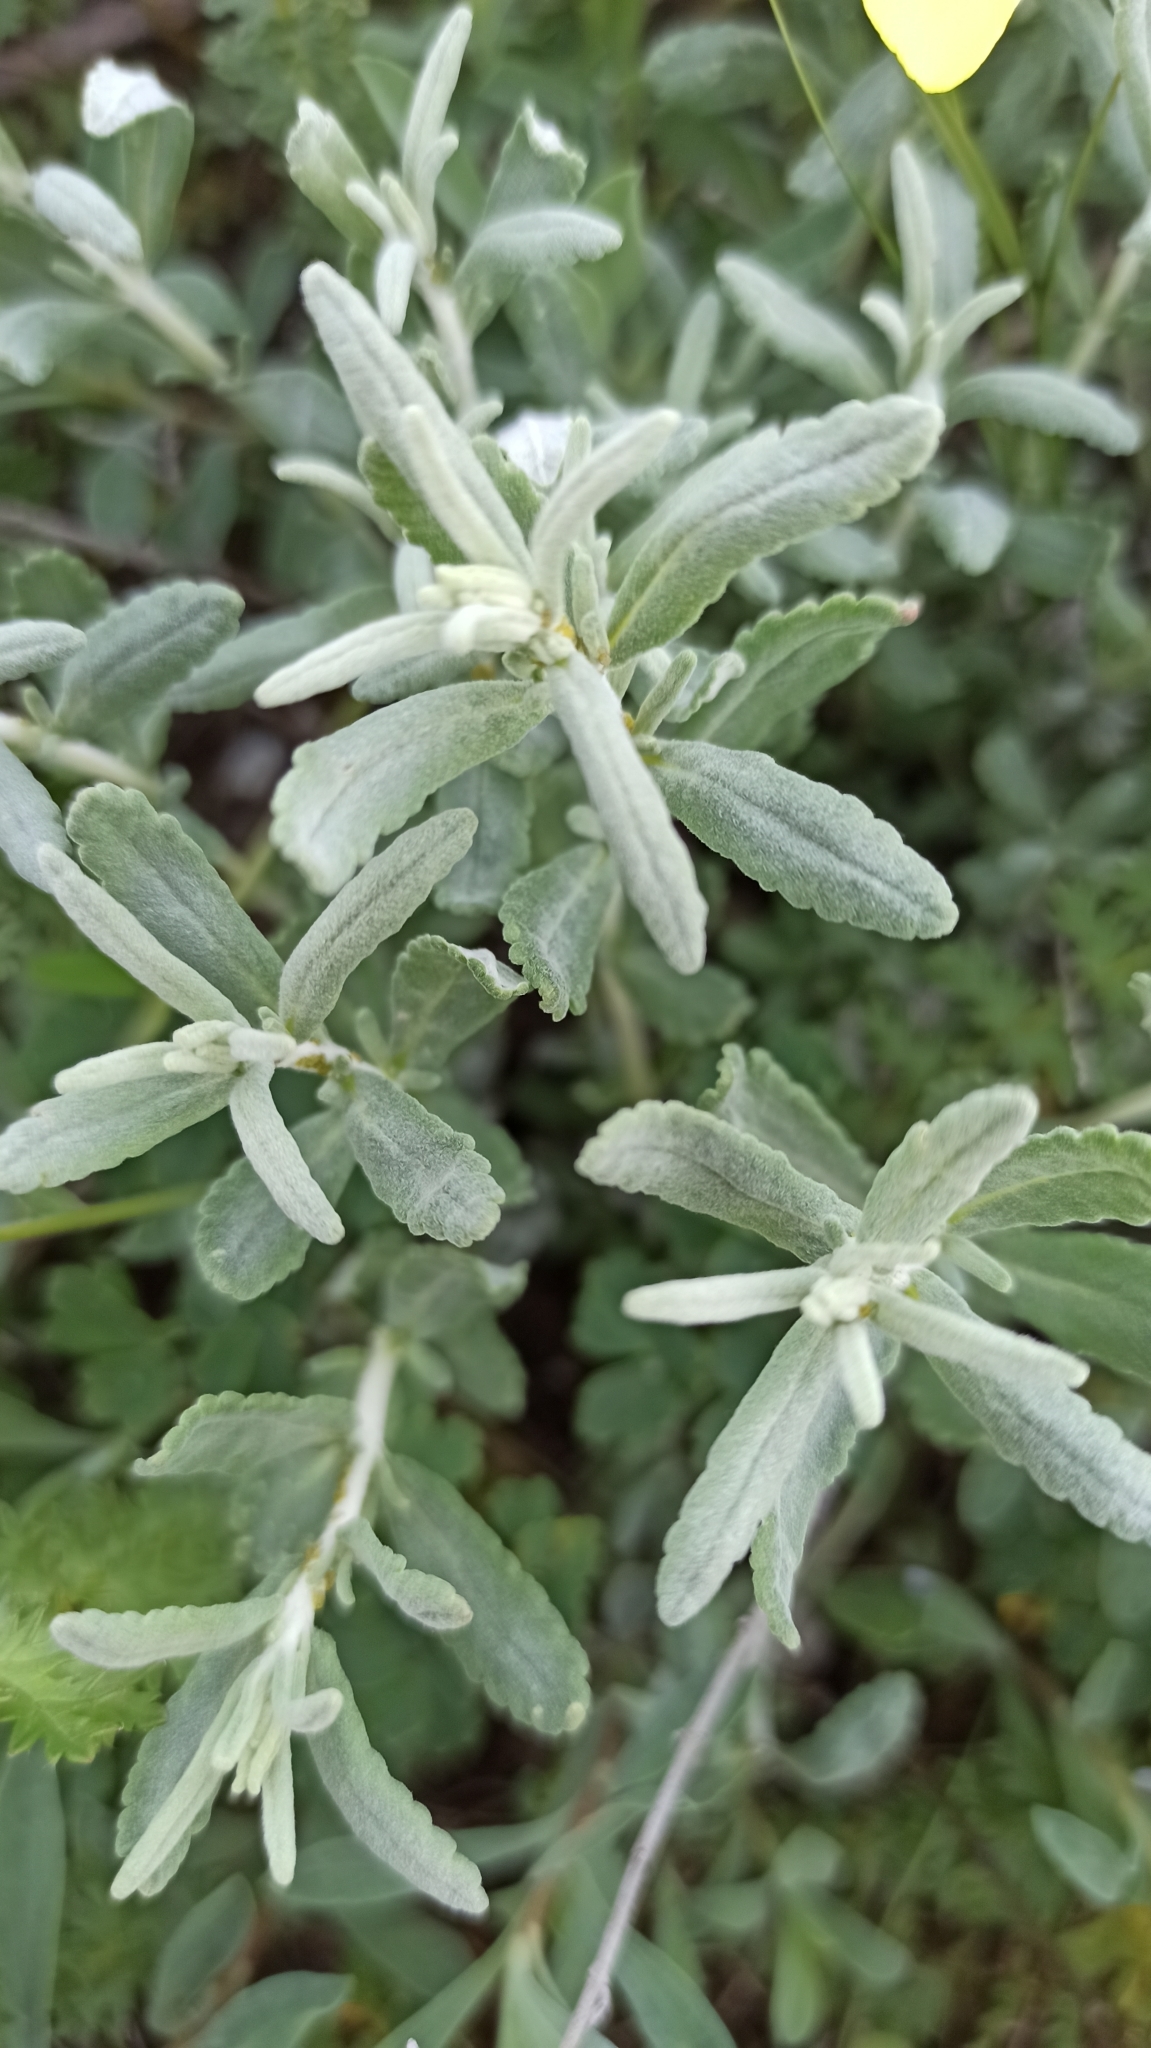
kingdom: Plantae
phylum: Tracheophyta
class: Magnoliopsida
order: Lamiales
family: Lamiaceae
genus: Teucrium
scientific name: Teucrium polium
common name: Poley
